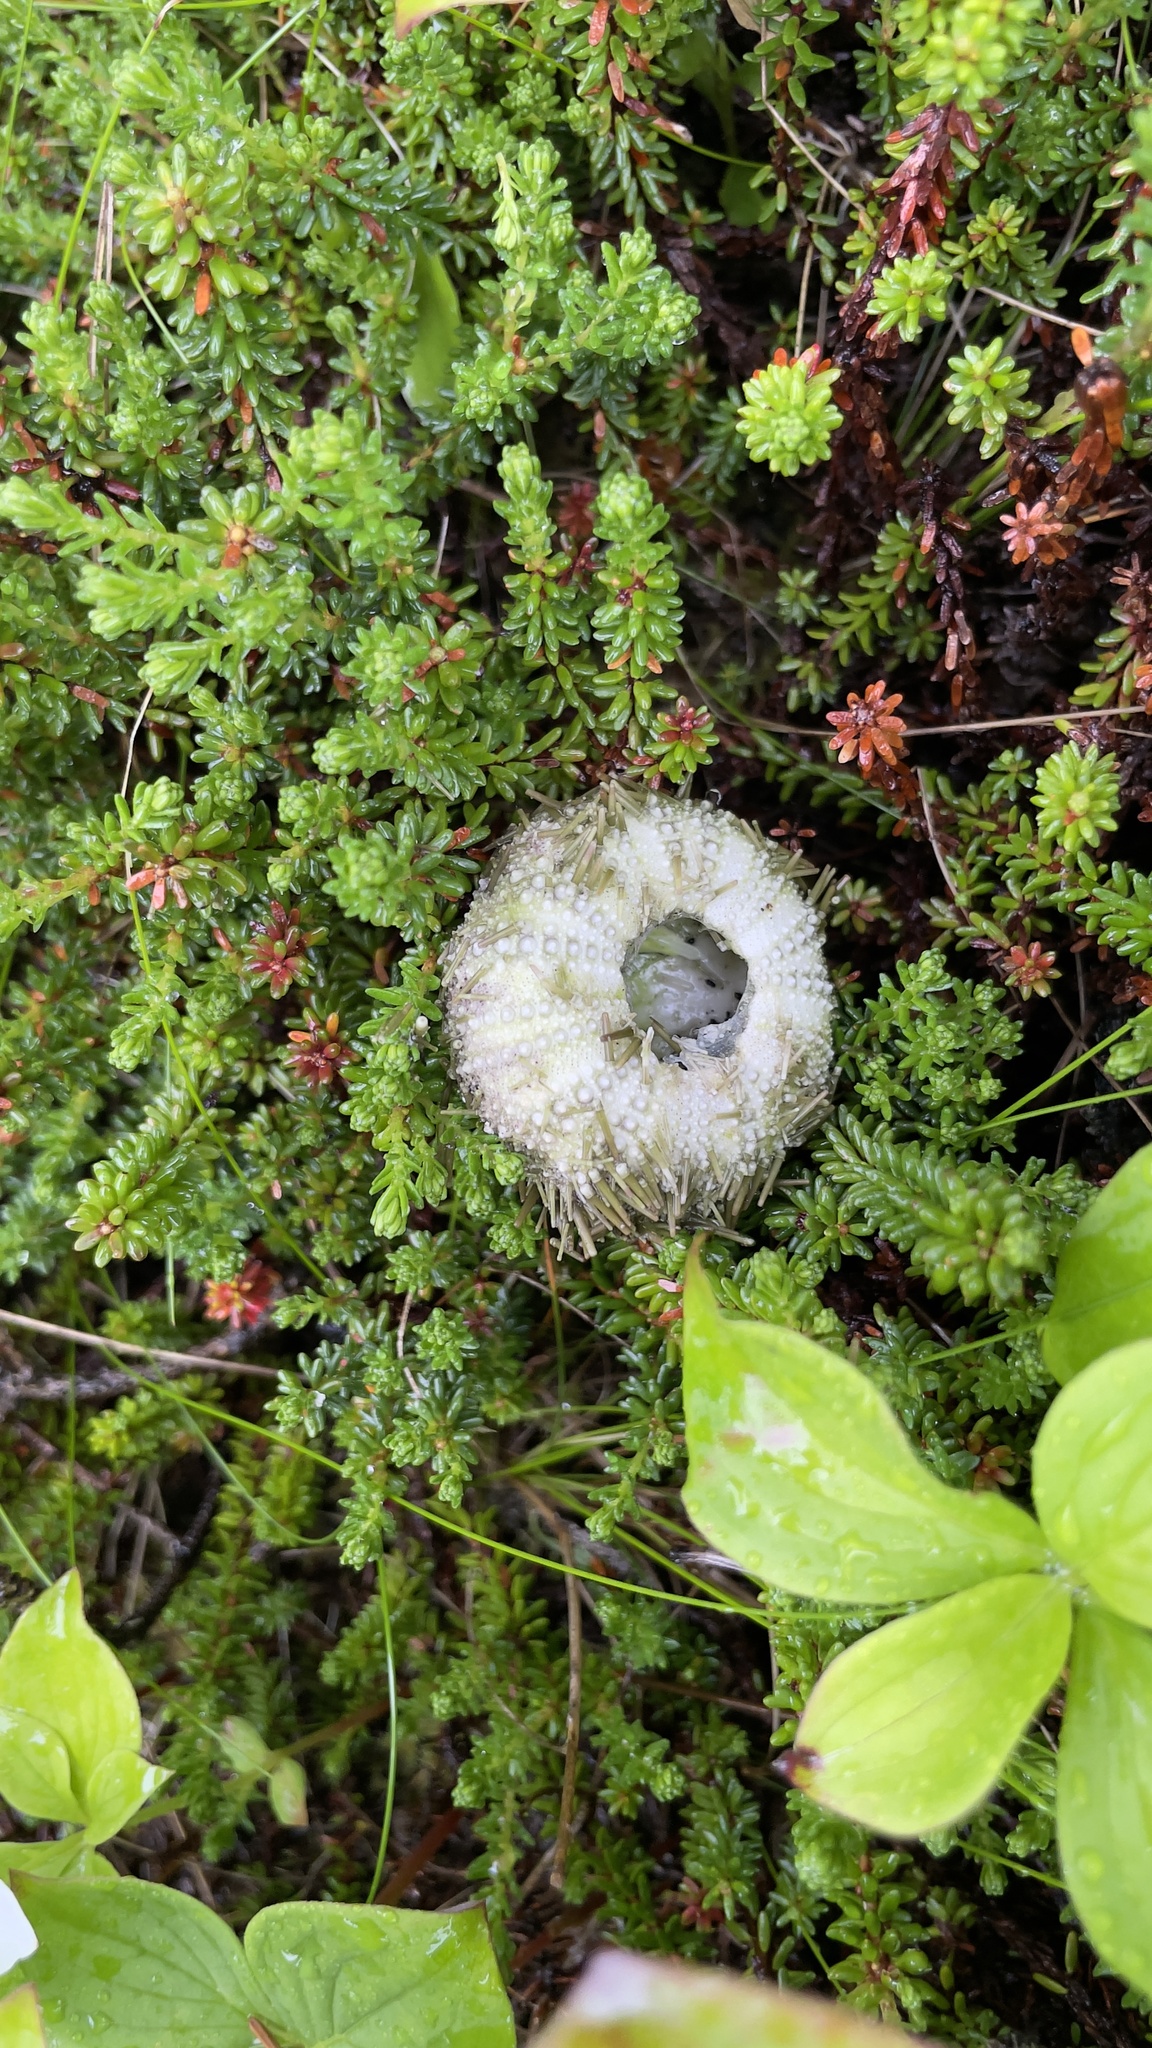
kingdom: Animalia
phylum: Echinodermata
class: Echinoidea
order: Camarodonta
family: Strongylocentrotidae
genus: Strongylocentrotus
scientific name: Strongylocentrotus droebachiensis
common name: Northern sea urchin
